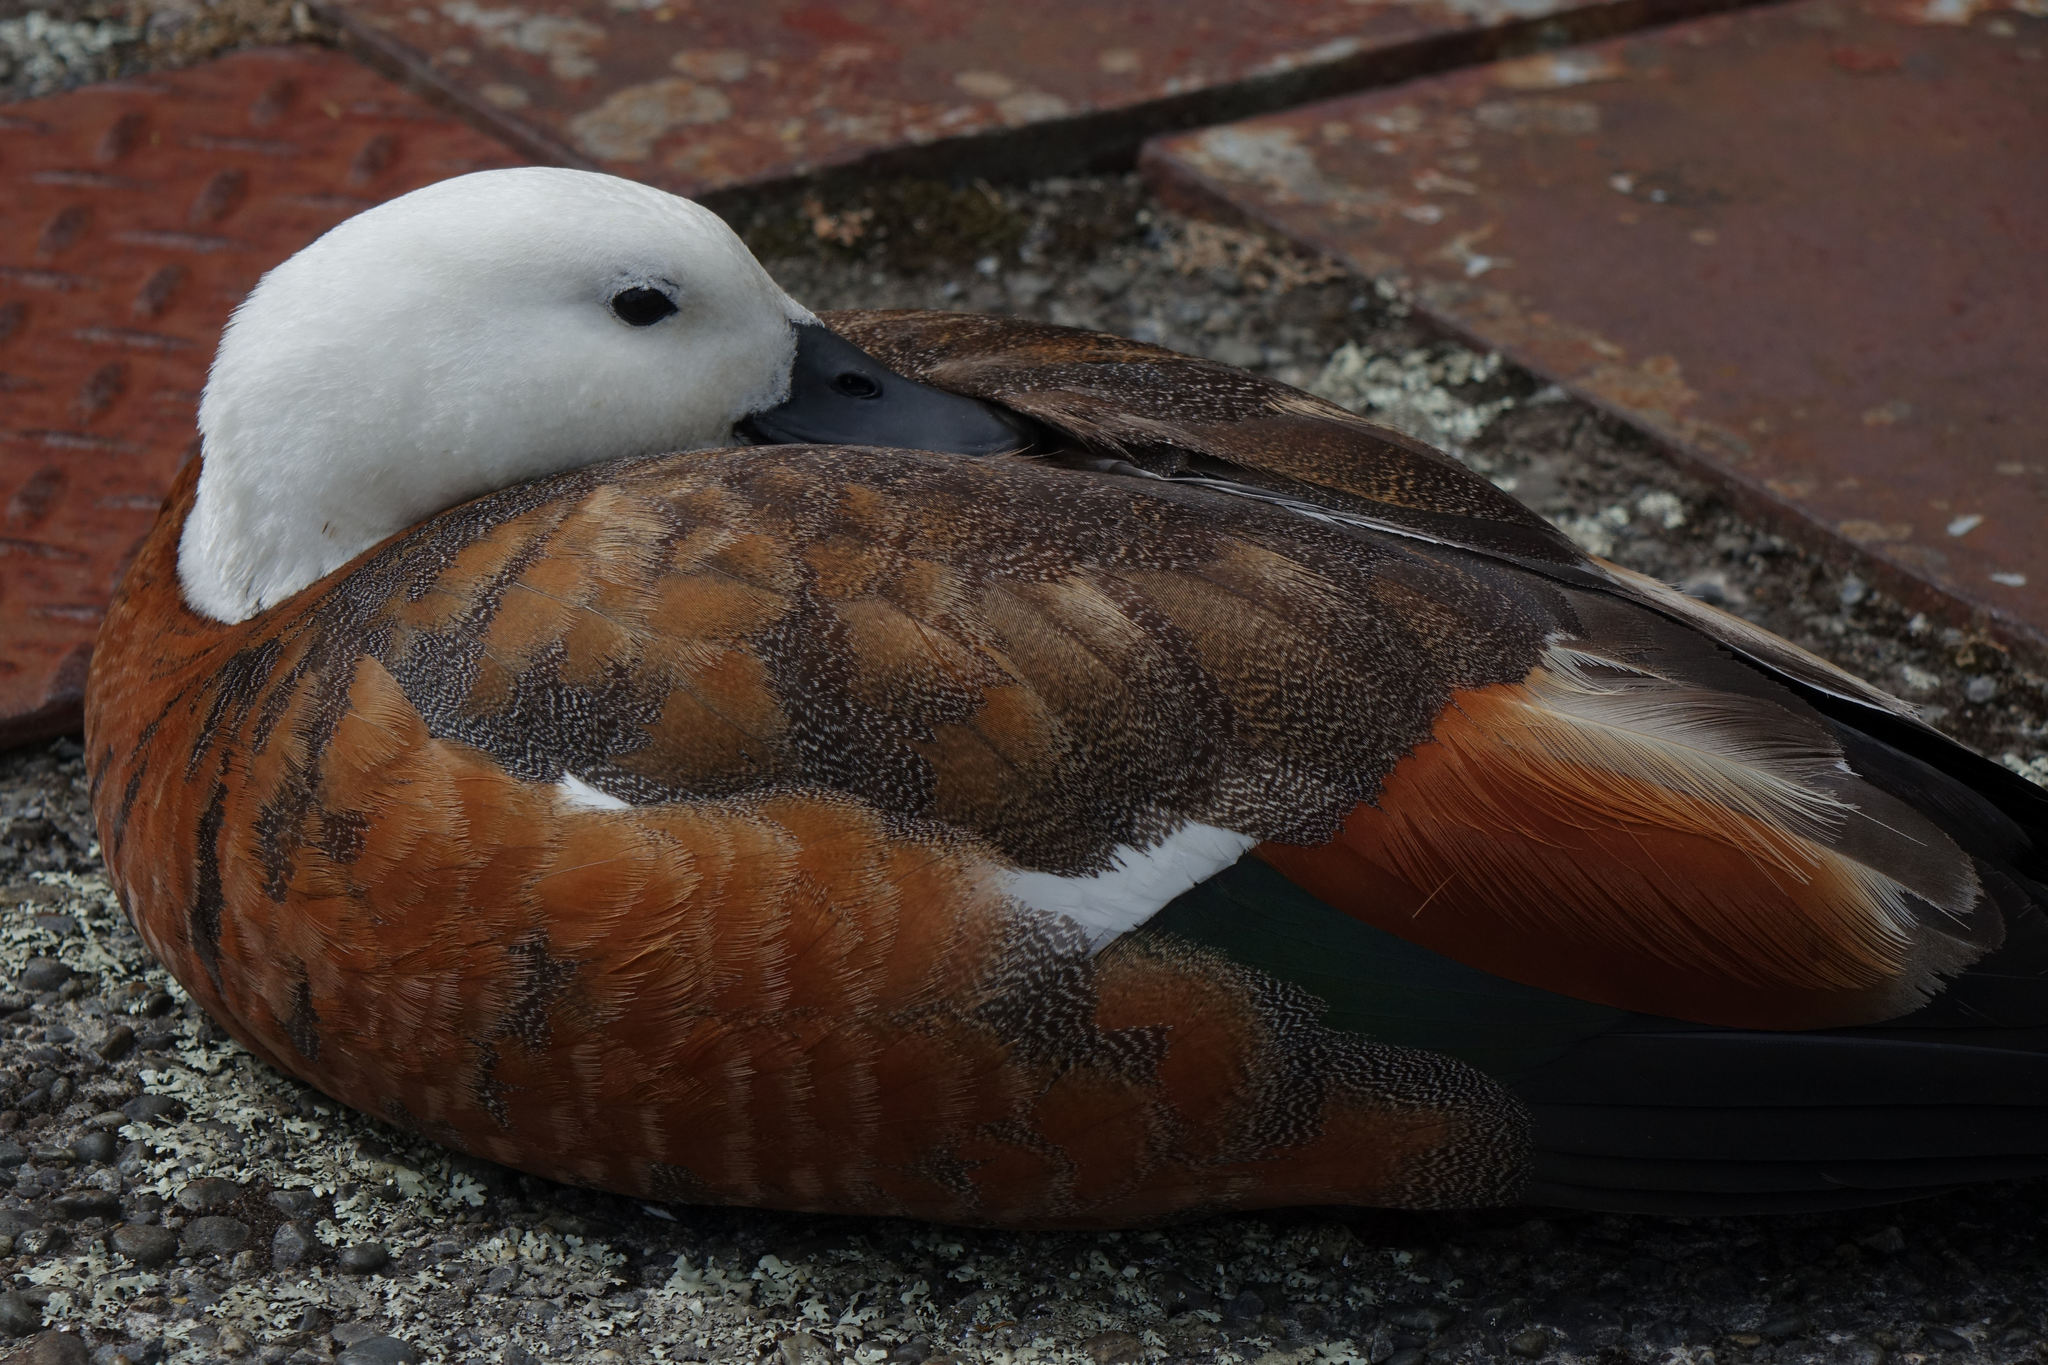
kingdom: Animalia
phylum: Chordata
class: Aves
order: Anseriformes
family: Anatidae
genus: Tadorna
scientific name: Tadorna variegata
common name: Paradise shelduck
